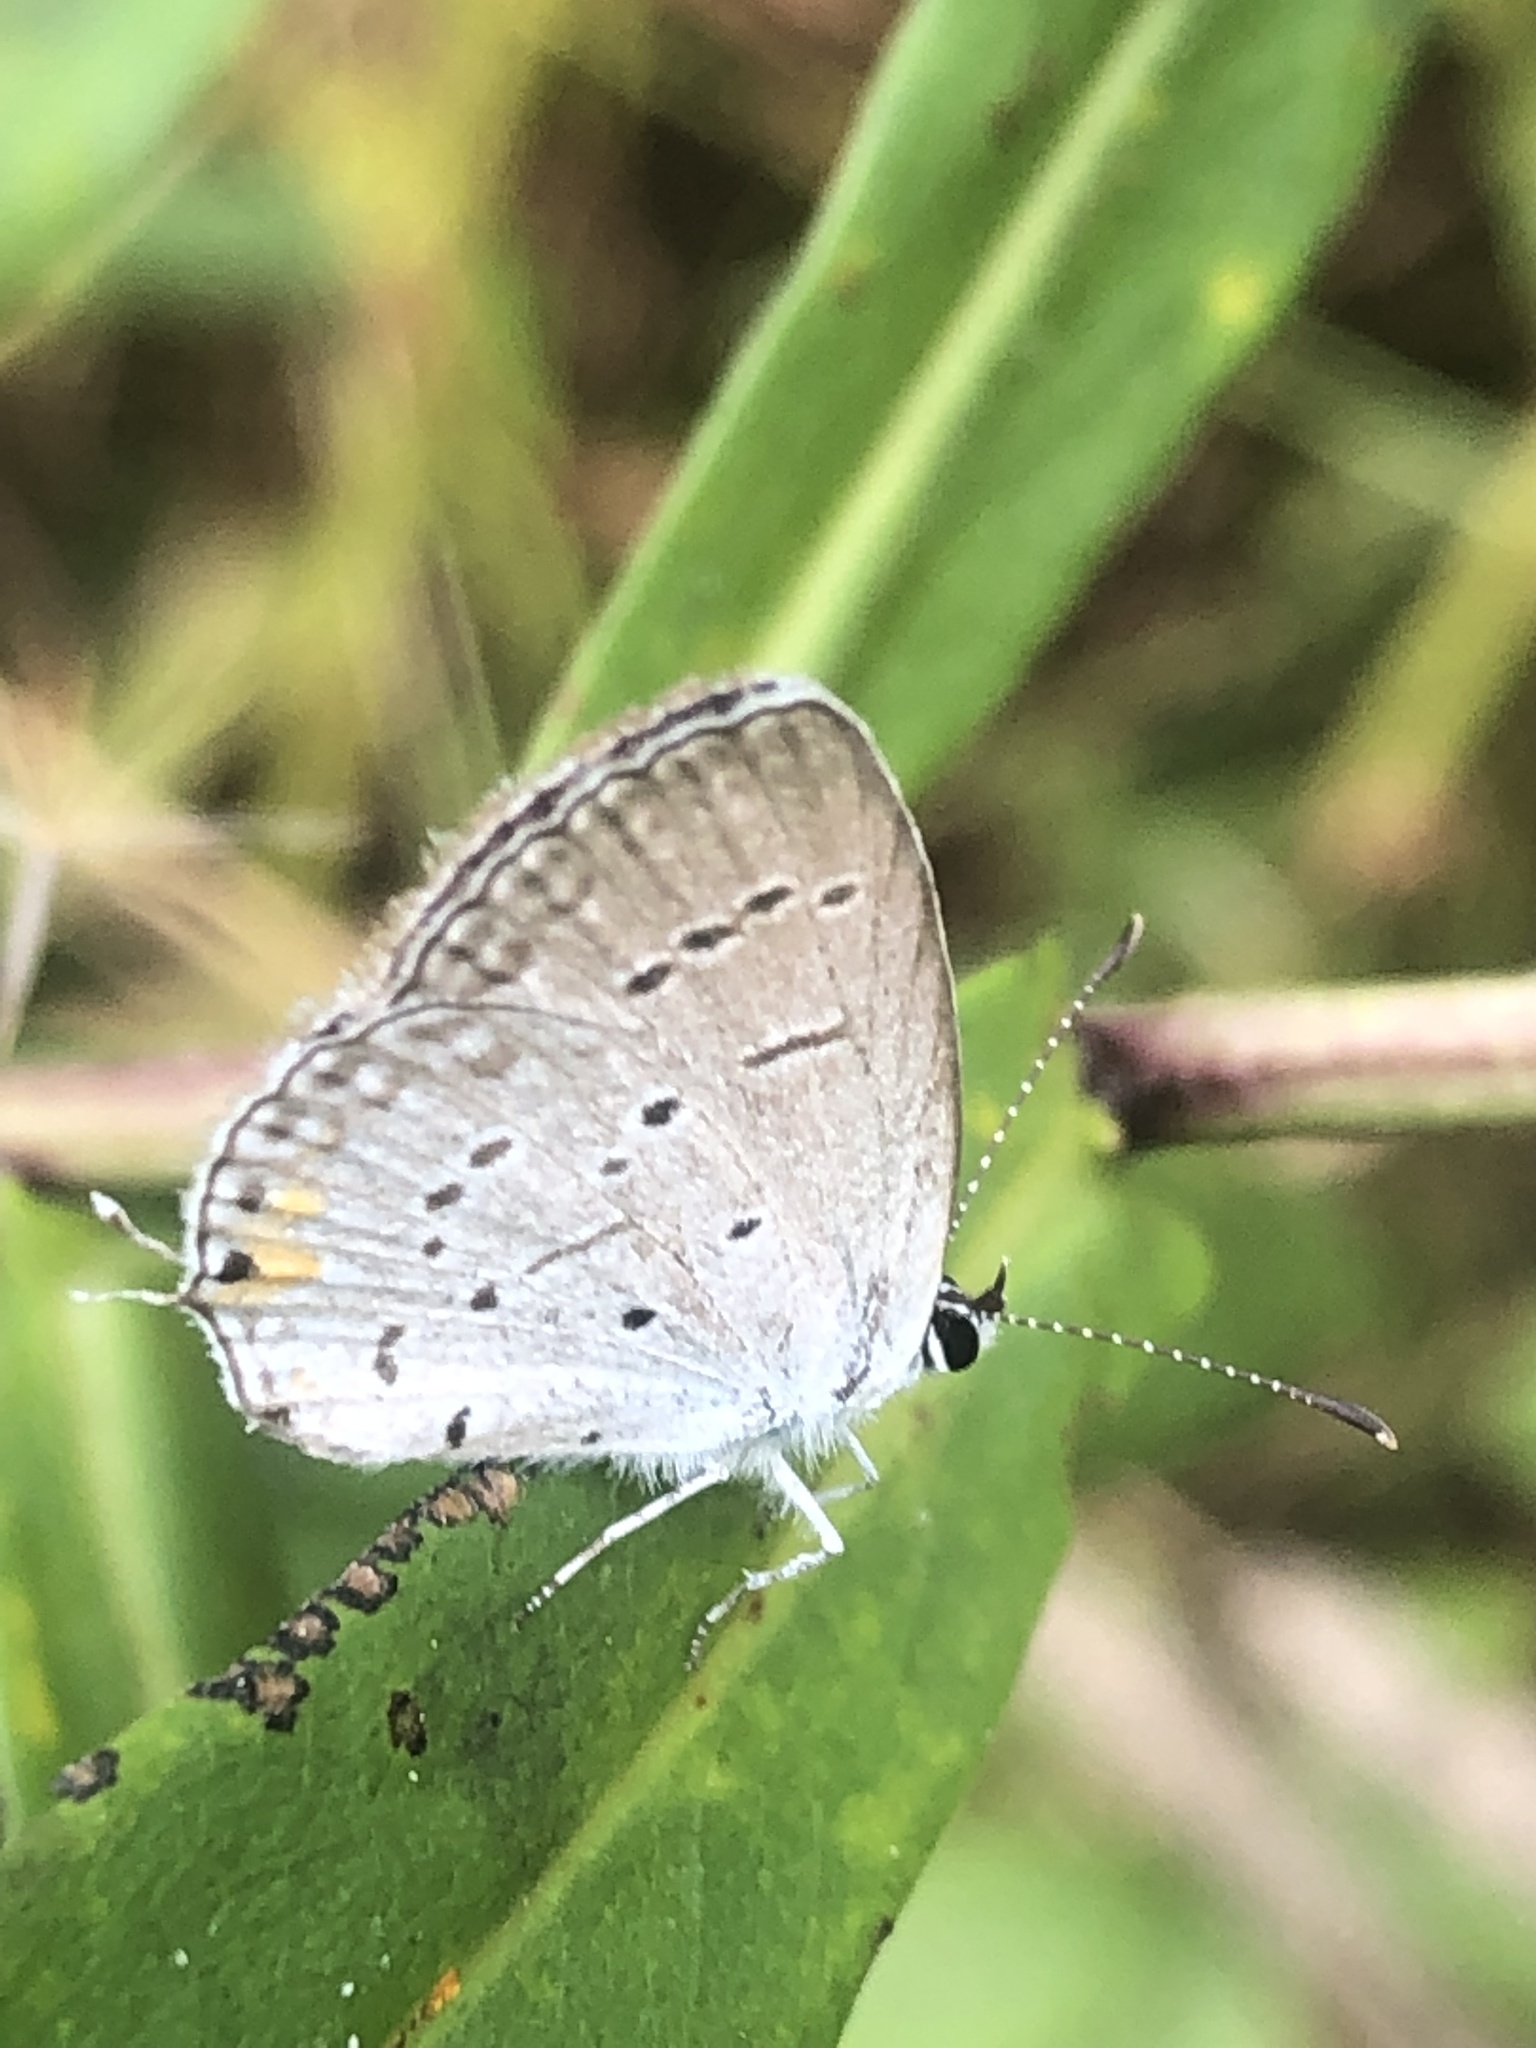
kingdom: Animalia
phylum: Arthropoda
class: Insecta
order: Lepidoptera
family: Lycaenidae
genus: Elkalyce
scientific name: Elkalyce comyntas
